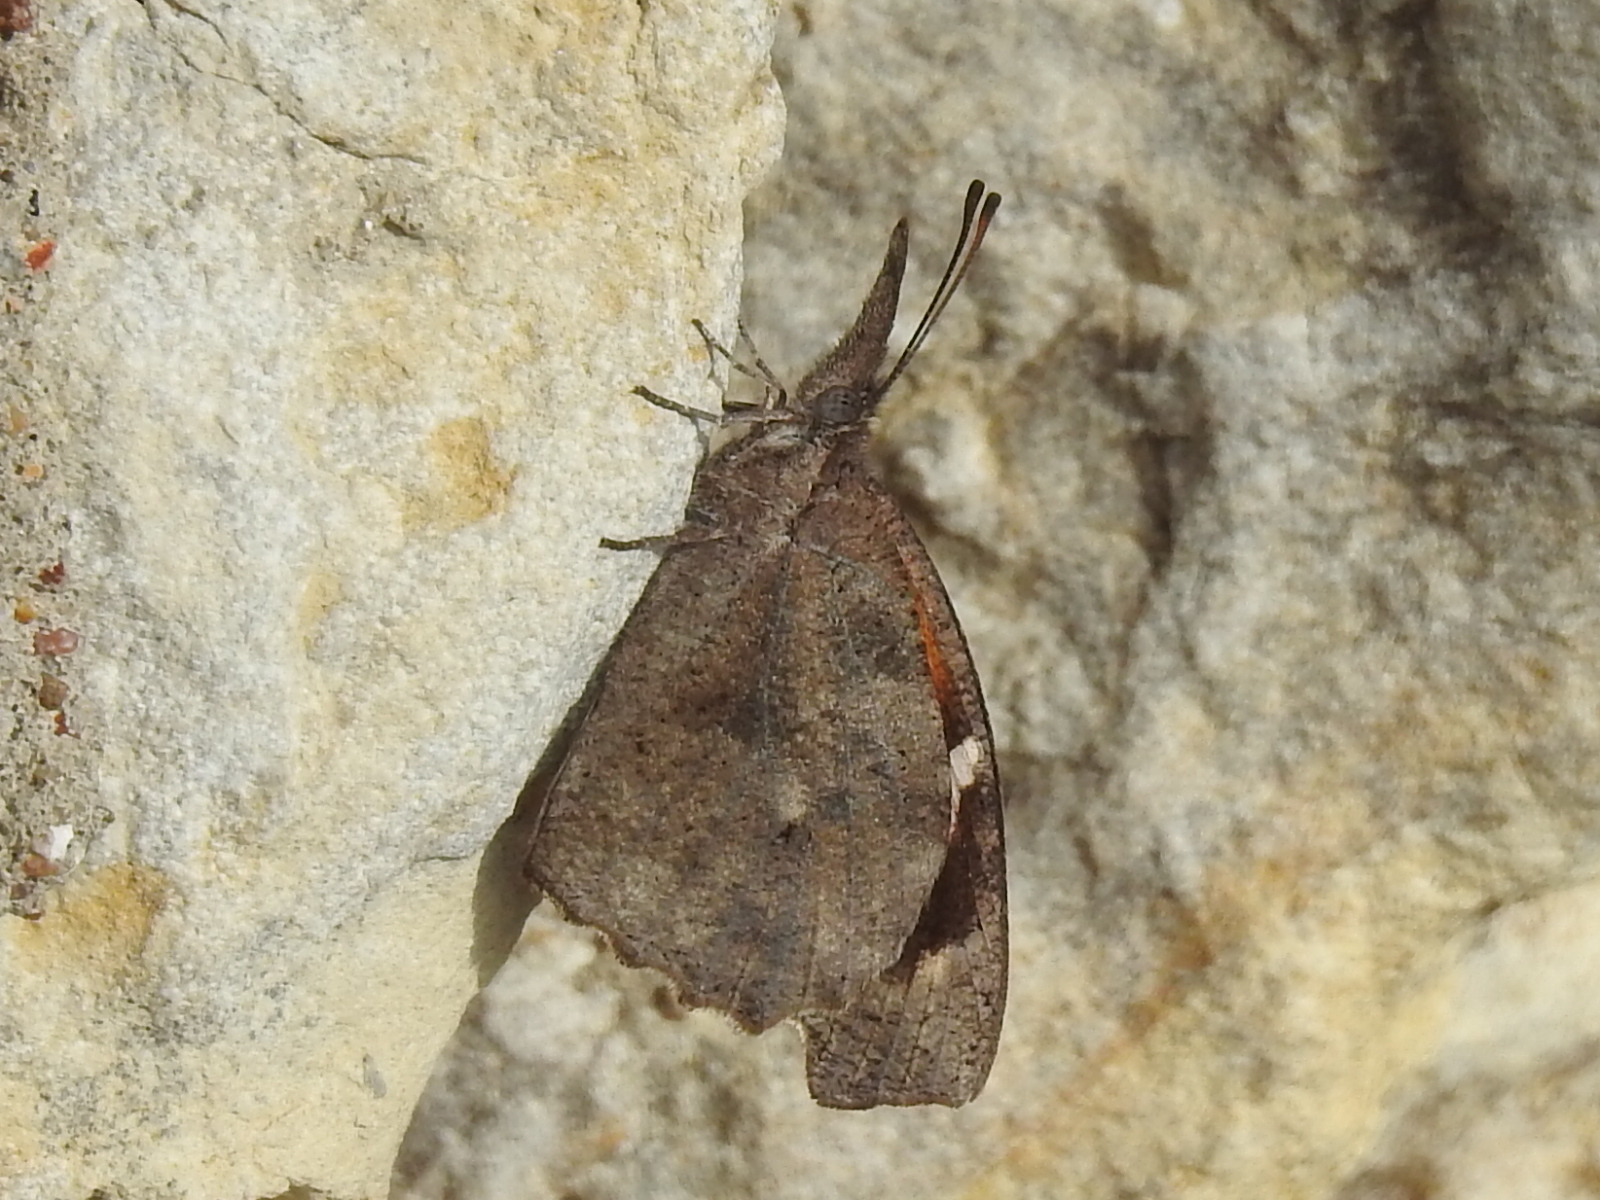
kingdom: Animalia
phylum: Arthropoda
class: Insecta
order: Lepidoptera
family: Nymphalidae
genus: Libytheana
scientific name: Libytheana carinenta
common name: American snout
